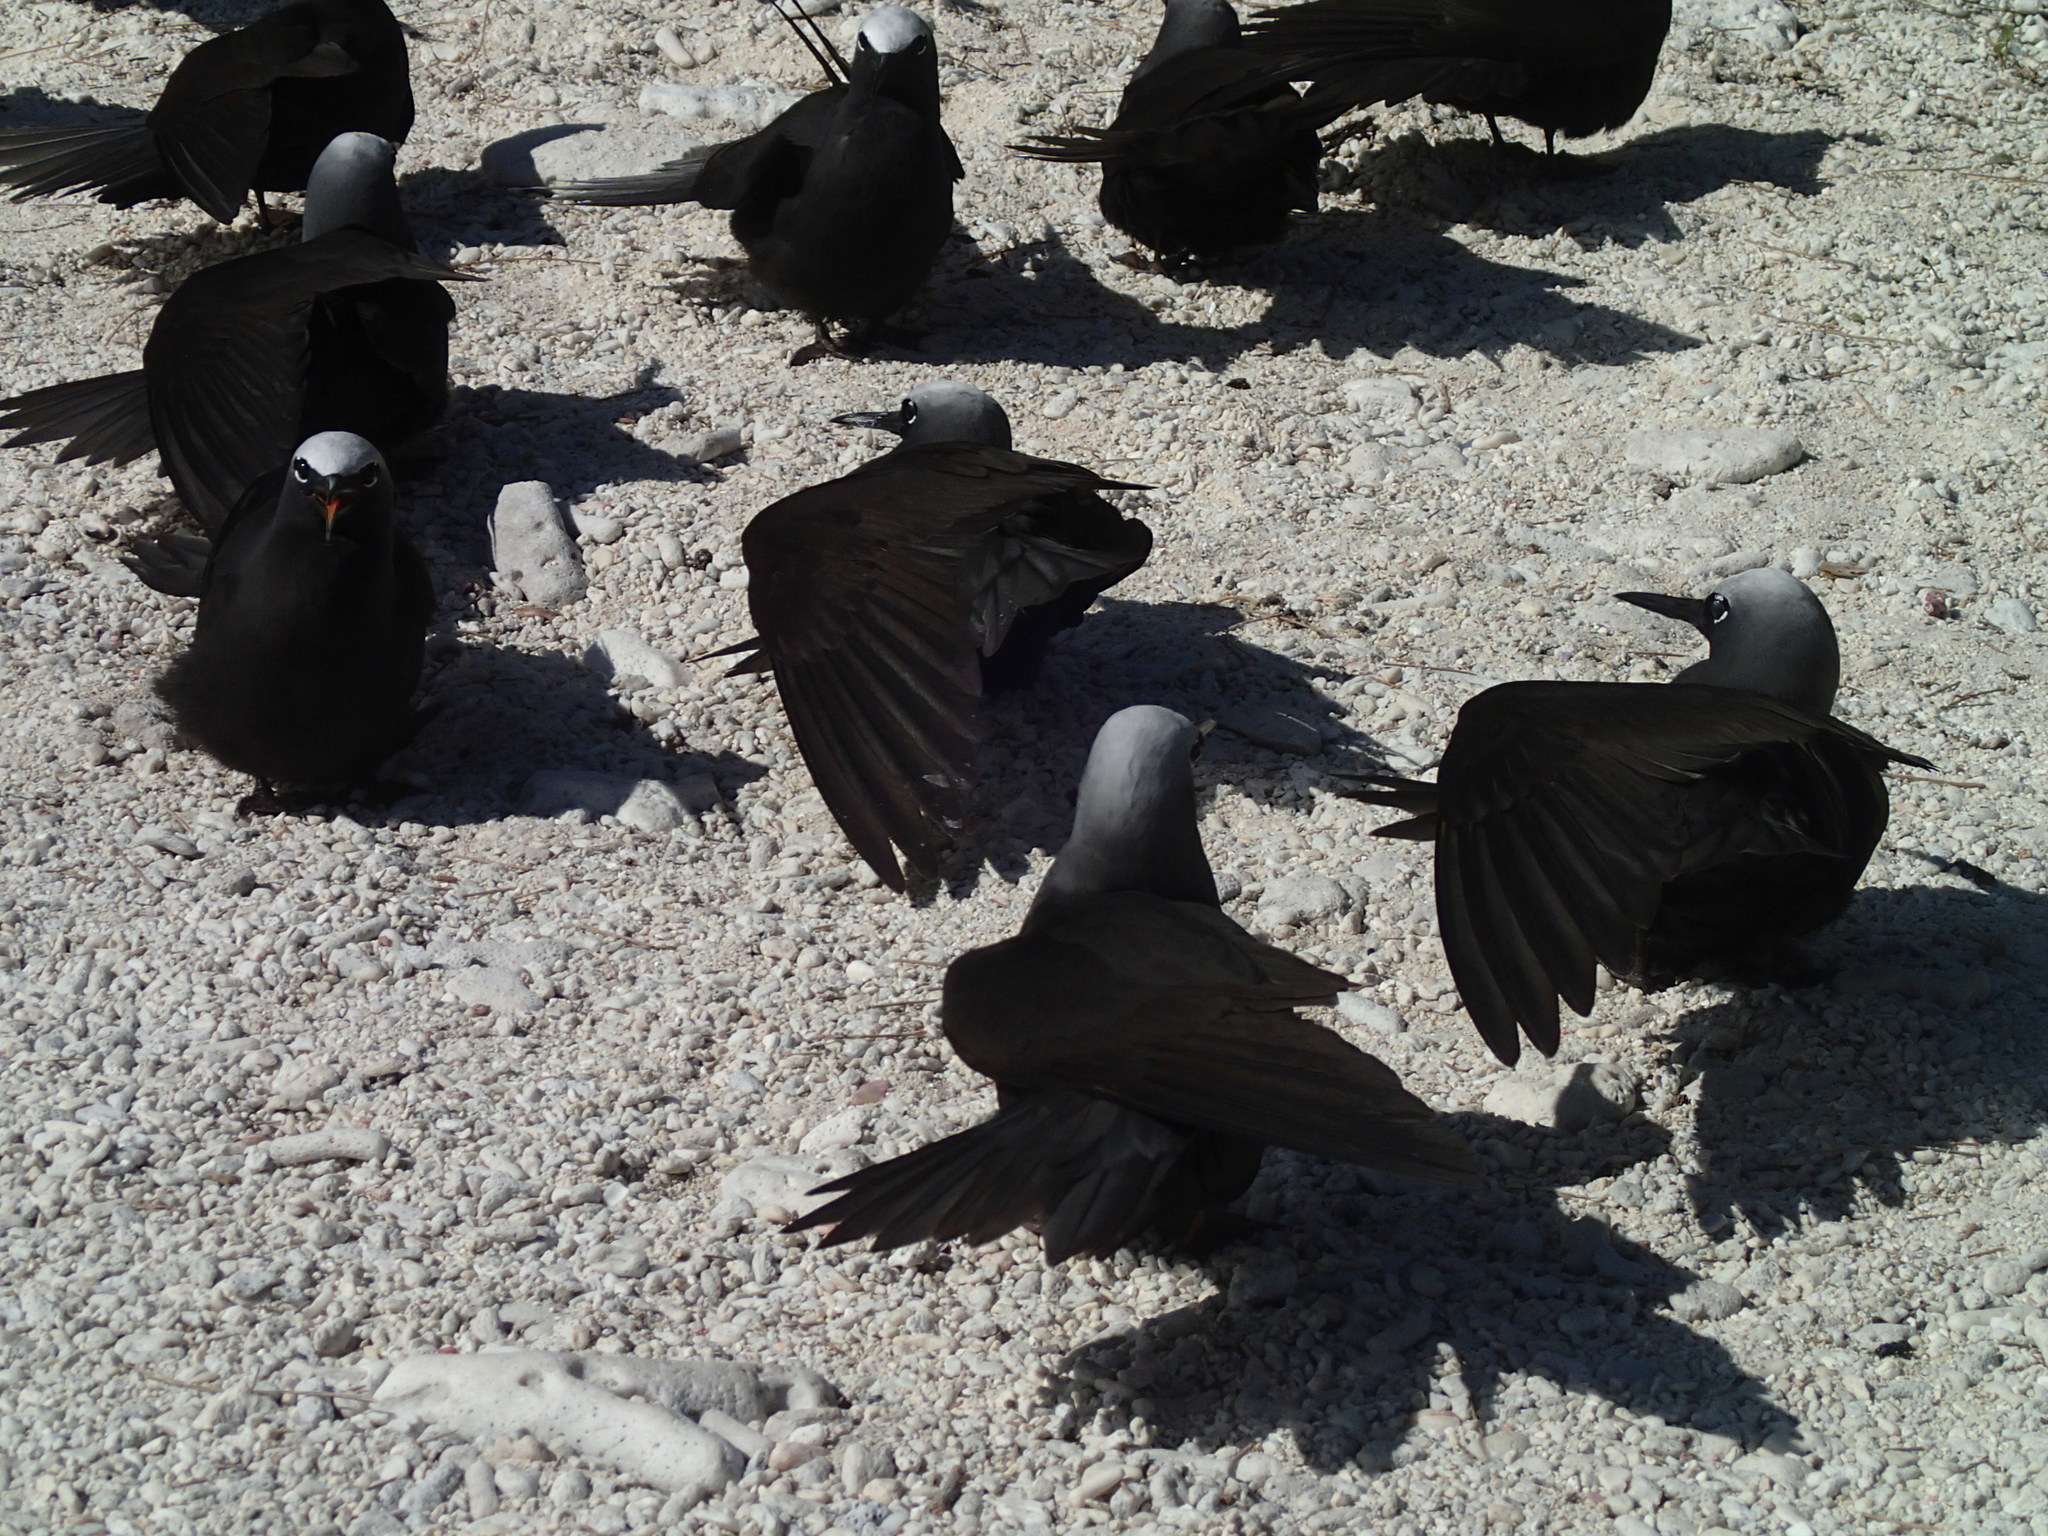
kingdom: Animalia
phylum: Chordata
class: Aves
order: Charadriiformes
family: Laridae
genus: Anous
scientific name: Anous minutus
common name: Black noddy
